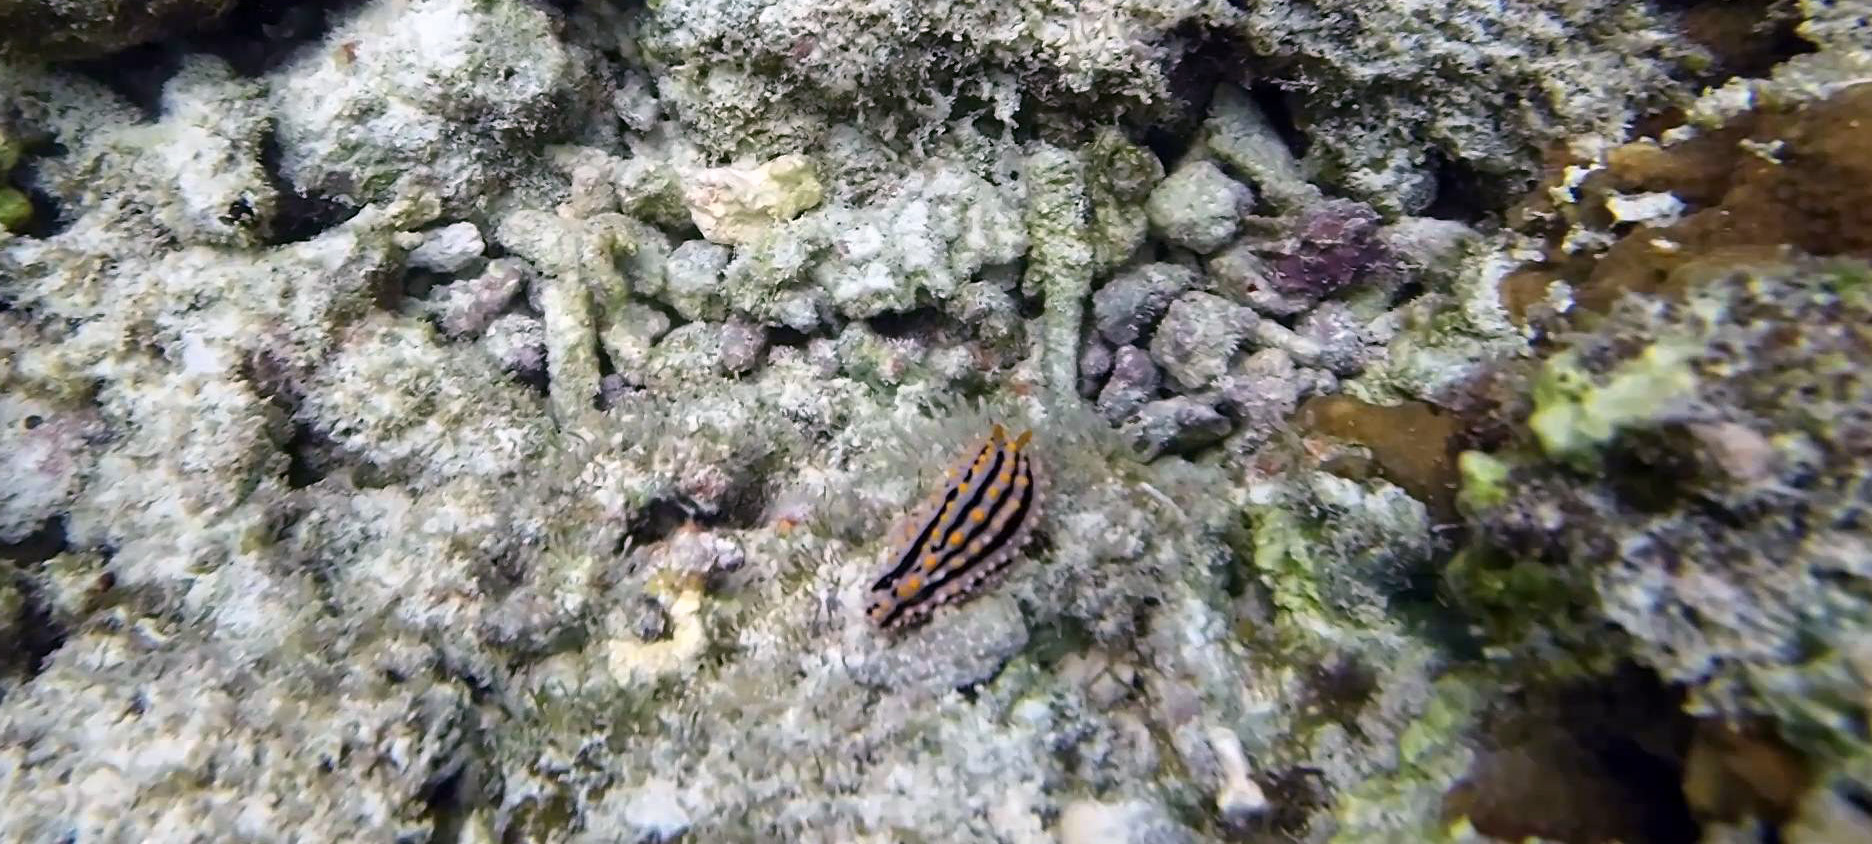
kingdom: Animalia
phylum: Mollusca
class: Gastropoda
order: Nudibranchia
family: Phyllidiidae
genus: Phyllidia
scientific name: Phyllidia alyta
